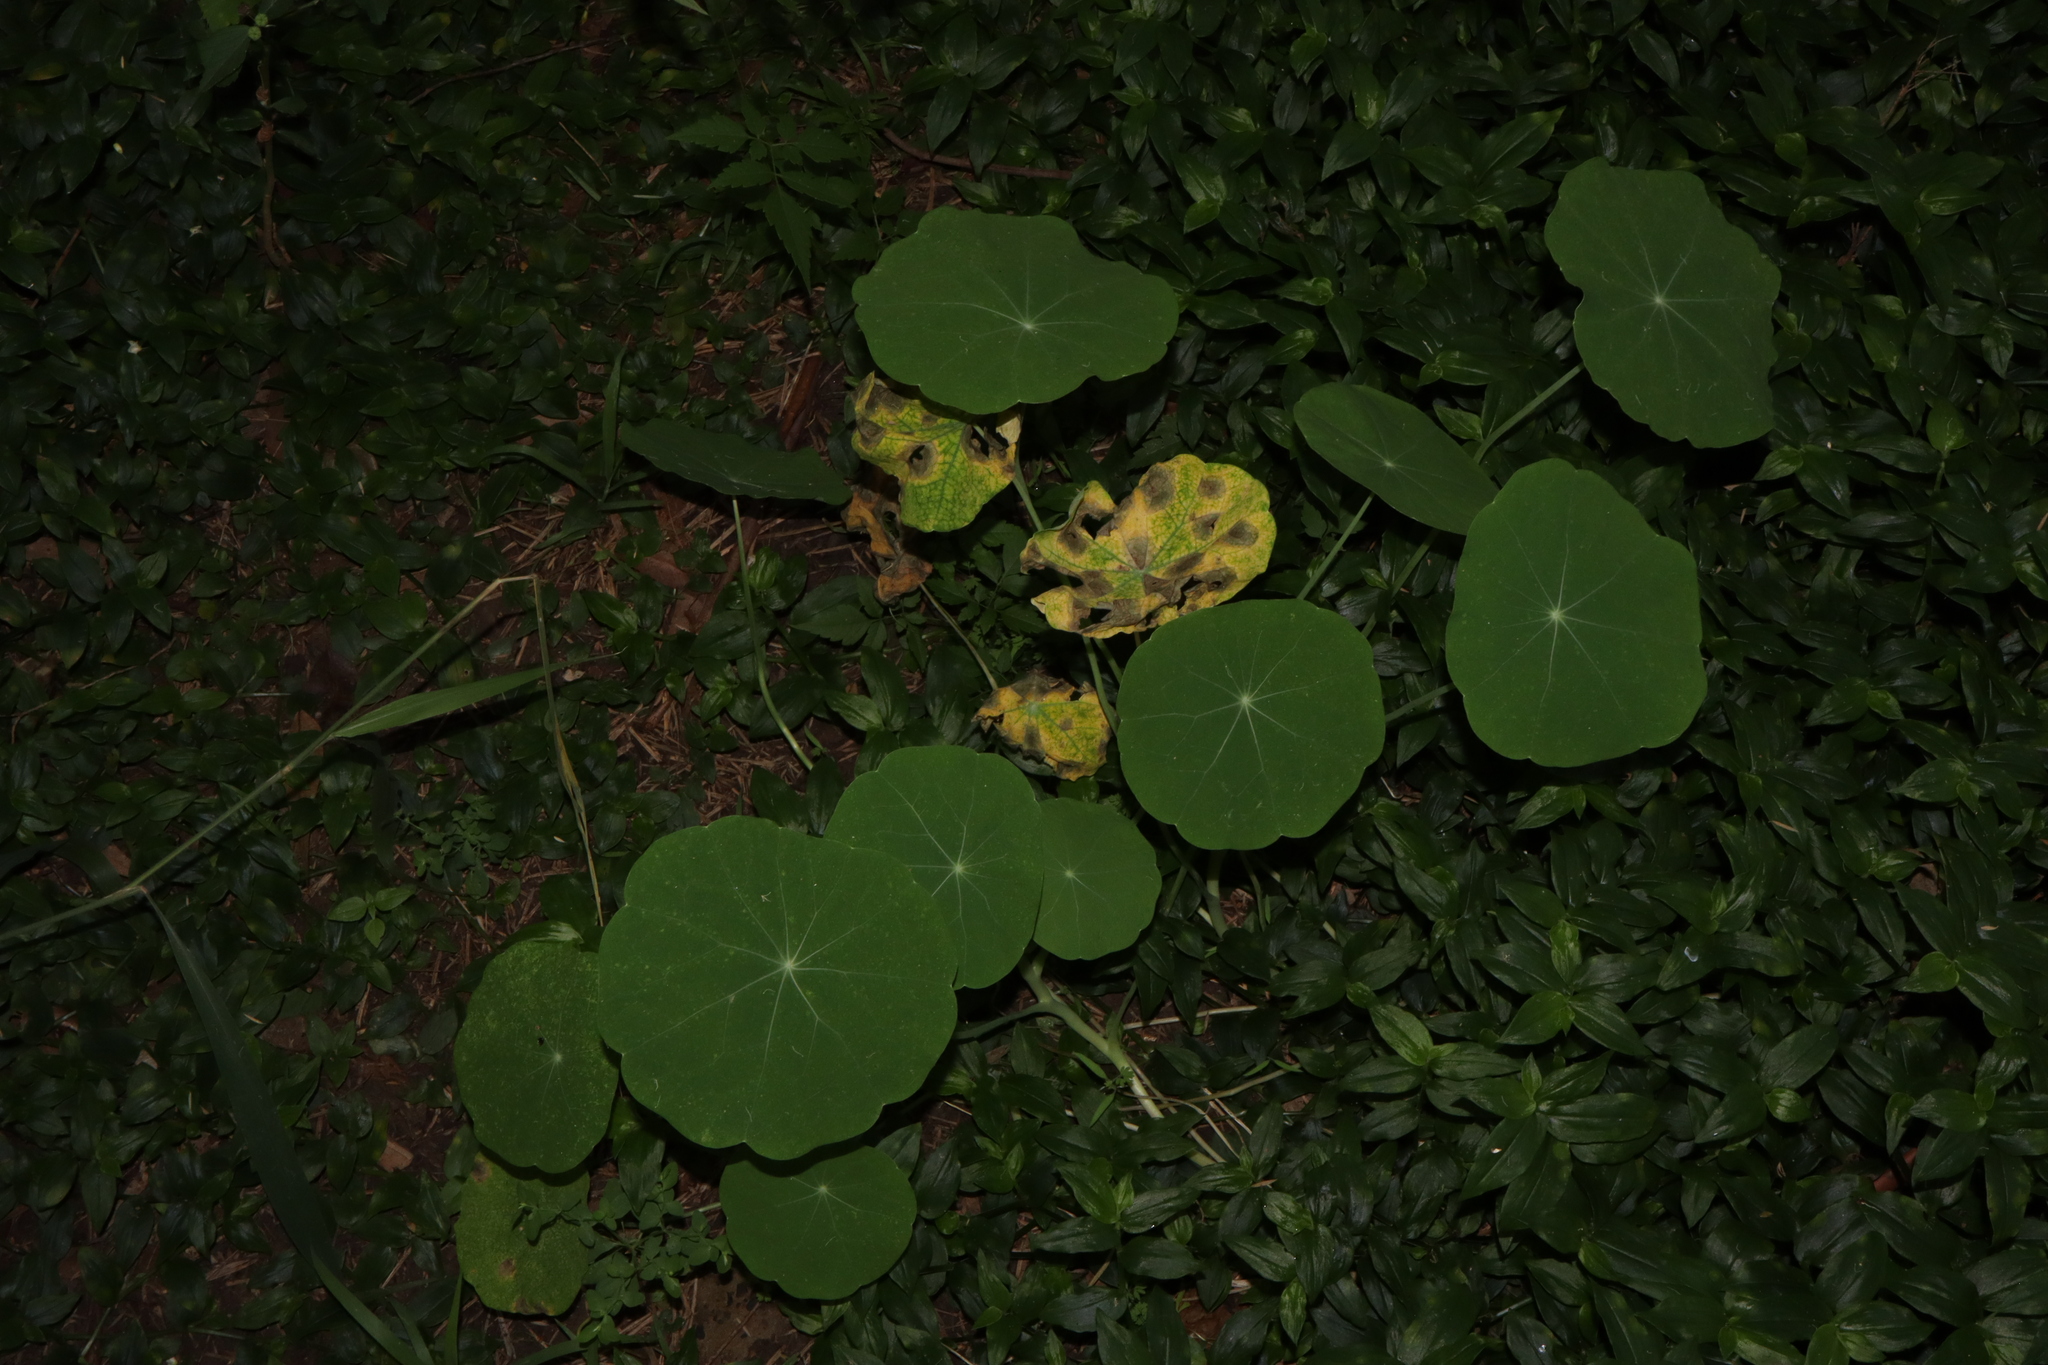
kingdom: Plantae
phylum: Tracheophyta
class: Magnoliopsida
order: Brassicales
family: Tropaeolaceae
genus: Tropaeolum
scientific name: Tropaeolum majus
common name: Nasturtium
